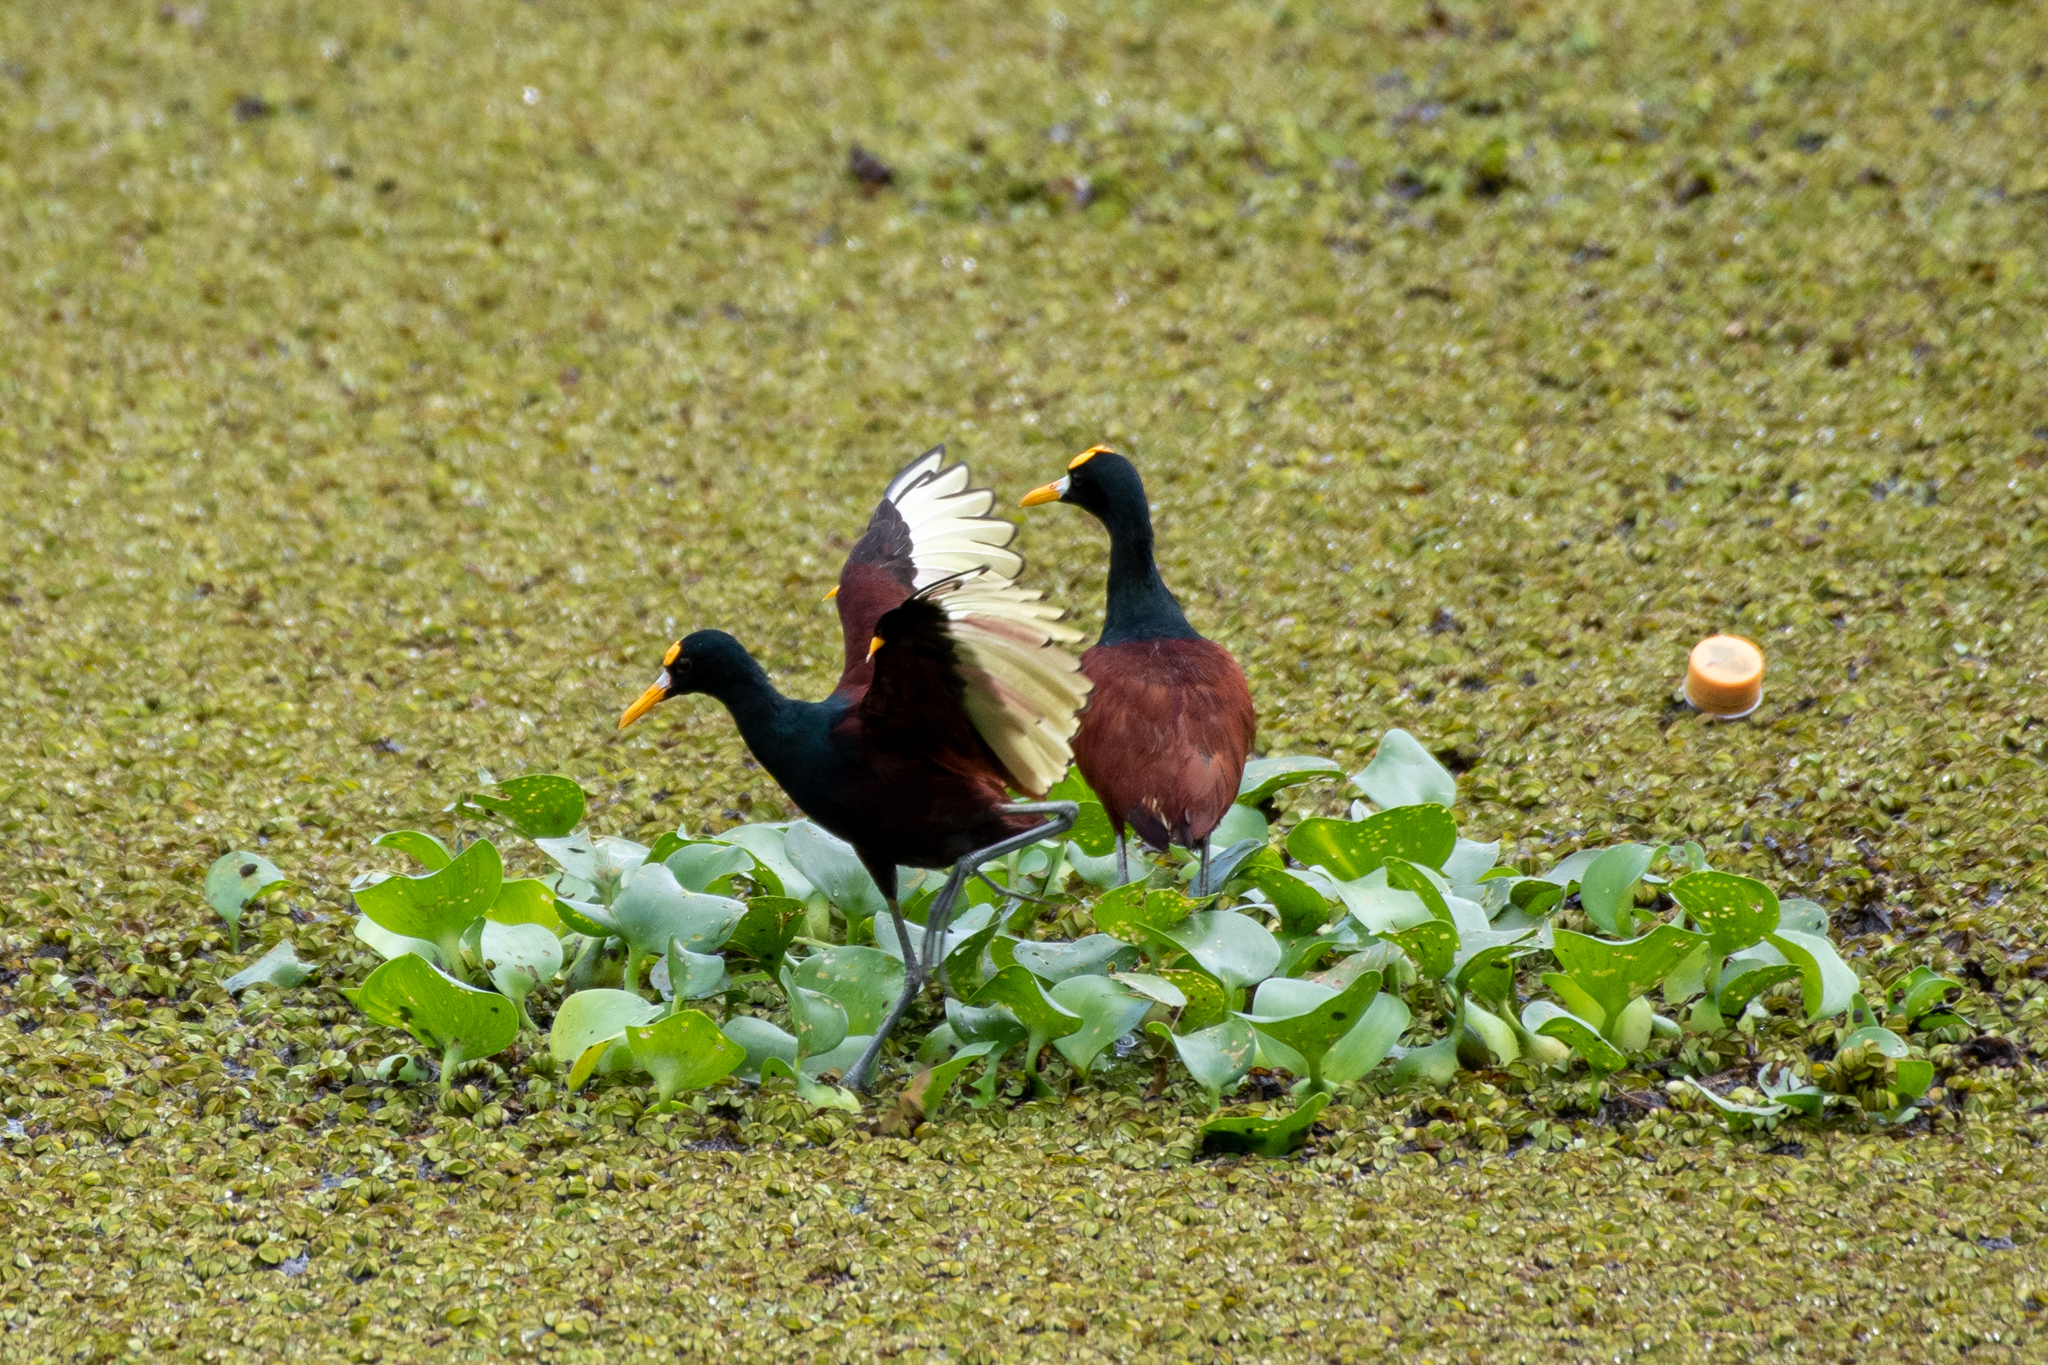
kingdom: Animalia
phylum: Chordata
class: Aves
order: Charadriiformes
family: Jacanidae
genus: Jacana
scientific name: Jacana spinosa
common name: Northern jacana
